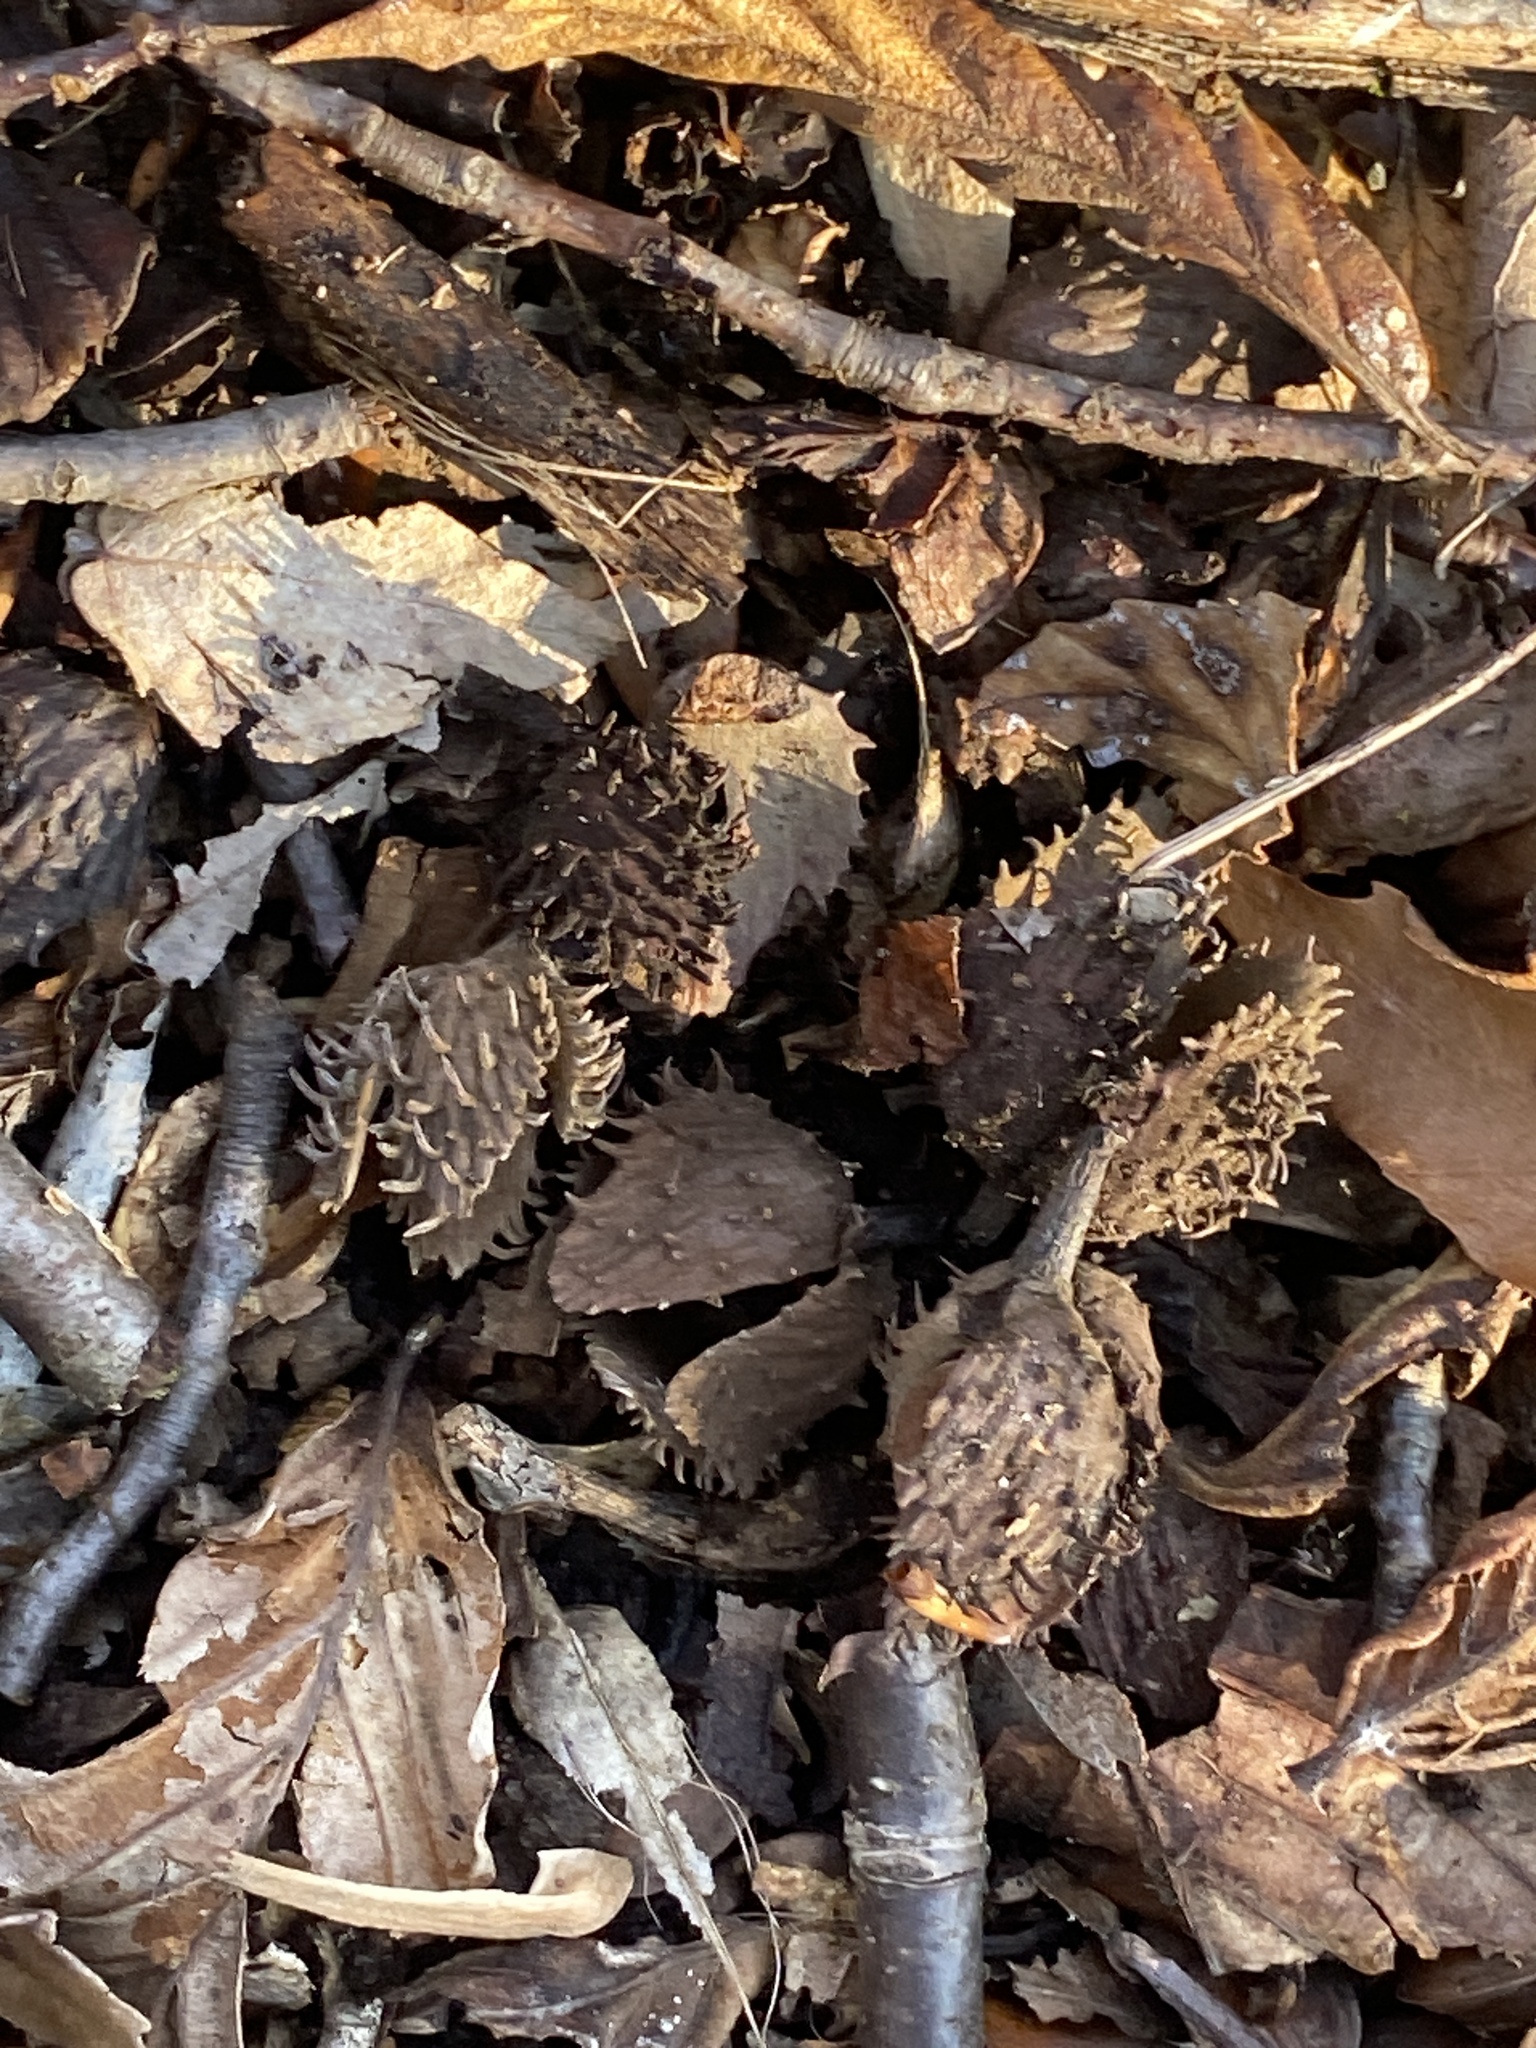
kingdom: Plantae
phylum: Tracheophyta
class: Magnoliopsida
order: Fagales
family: Fagaceae
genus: Fagus
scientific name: Fagus grandifolia
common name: American beech
